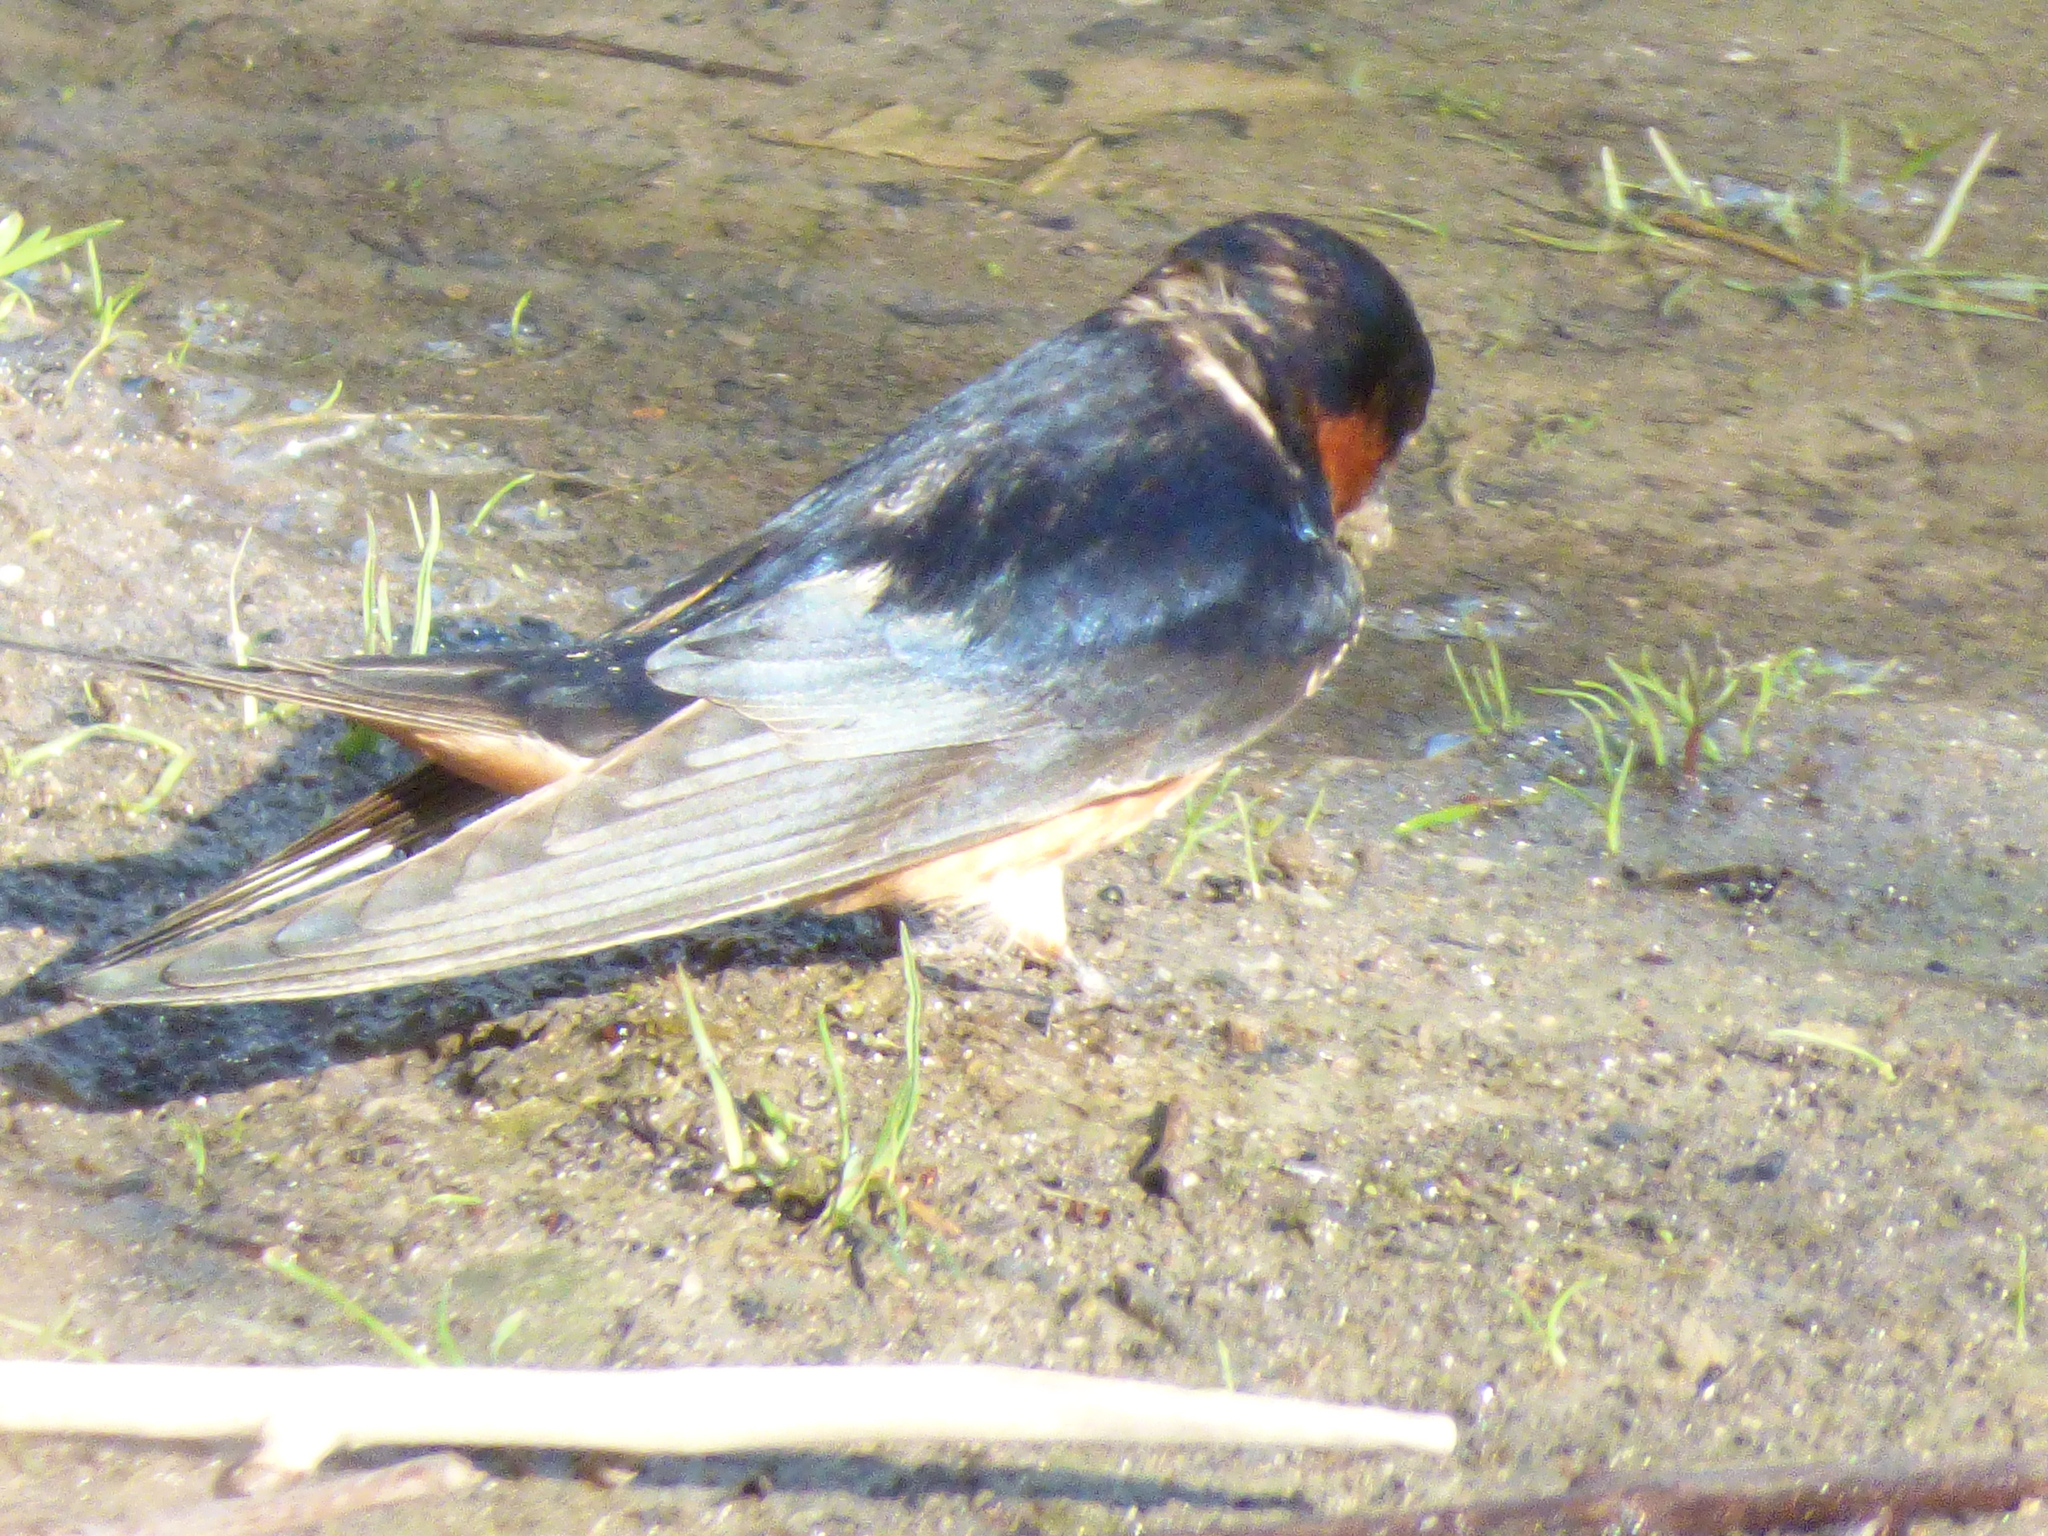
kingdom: Animalia
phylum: Chordata
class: Aves
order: Passeriformes
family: Hirundinidae
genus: Hirundo
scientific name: Hirundo rustica
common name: Barn swallow
